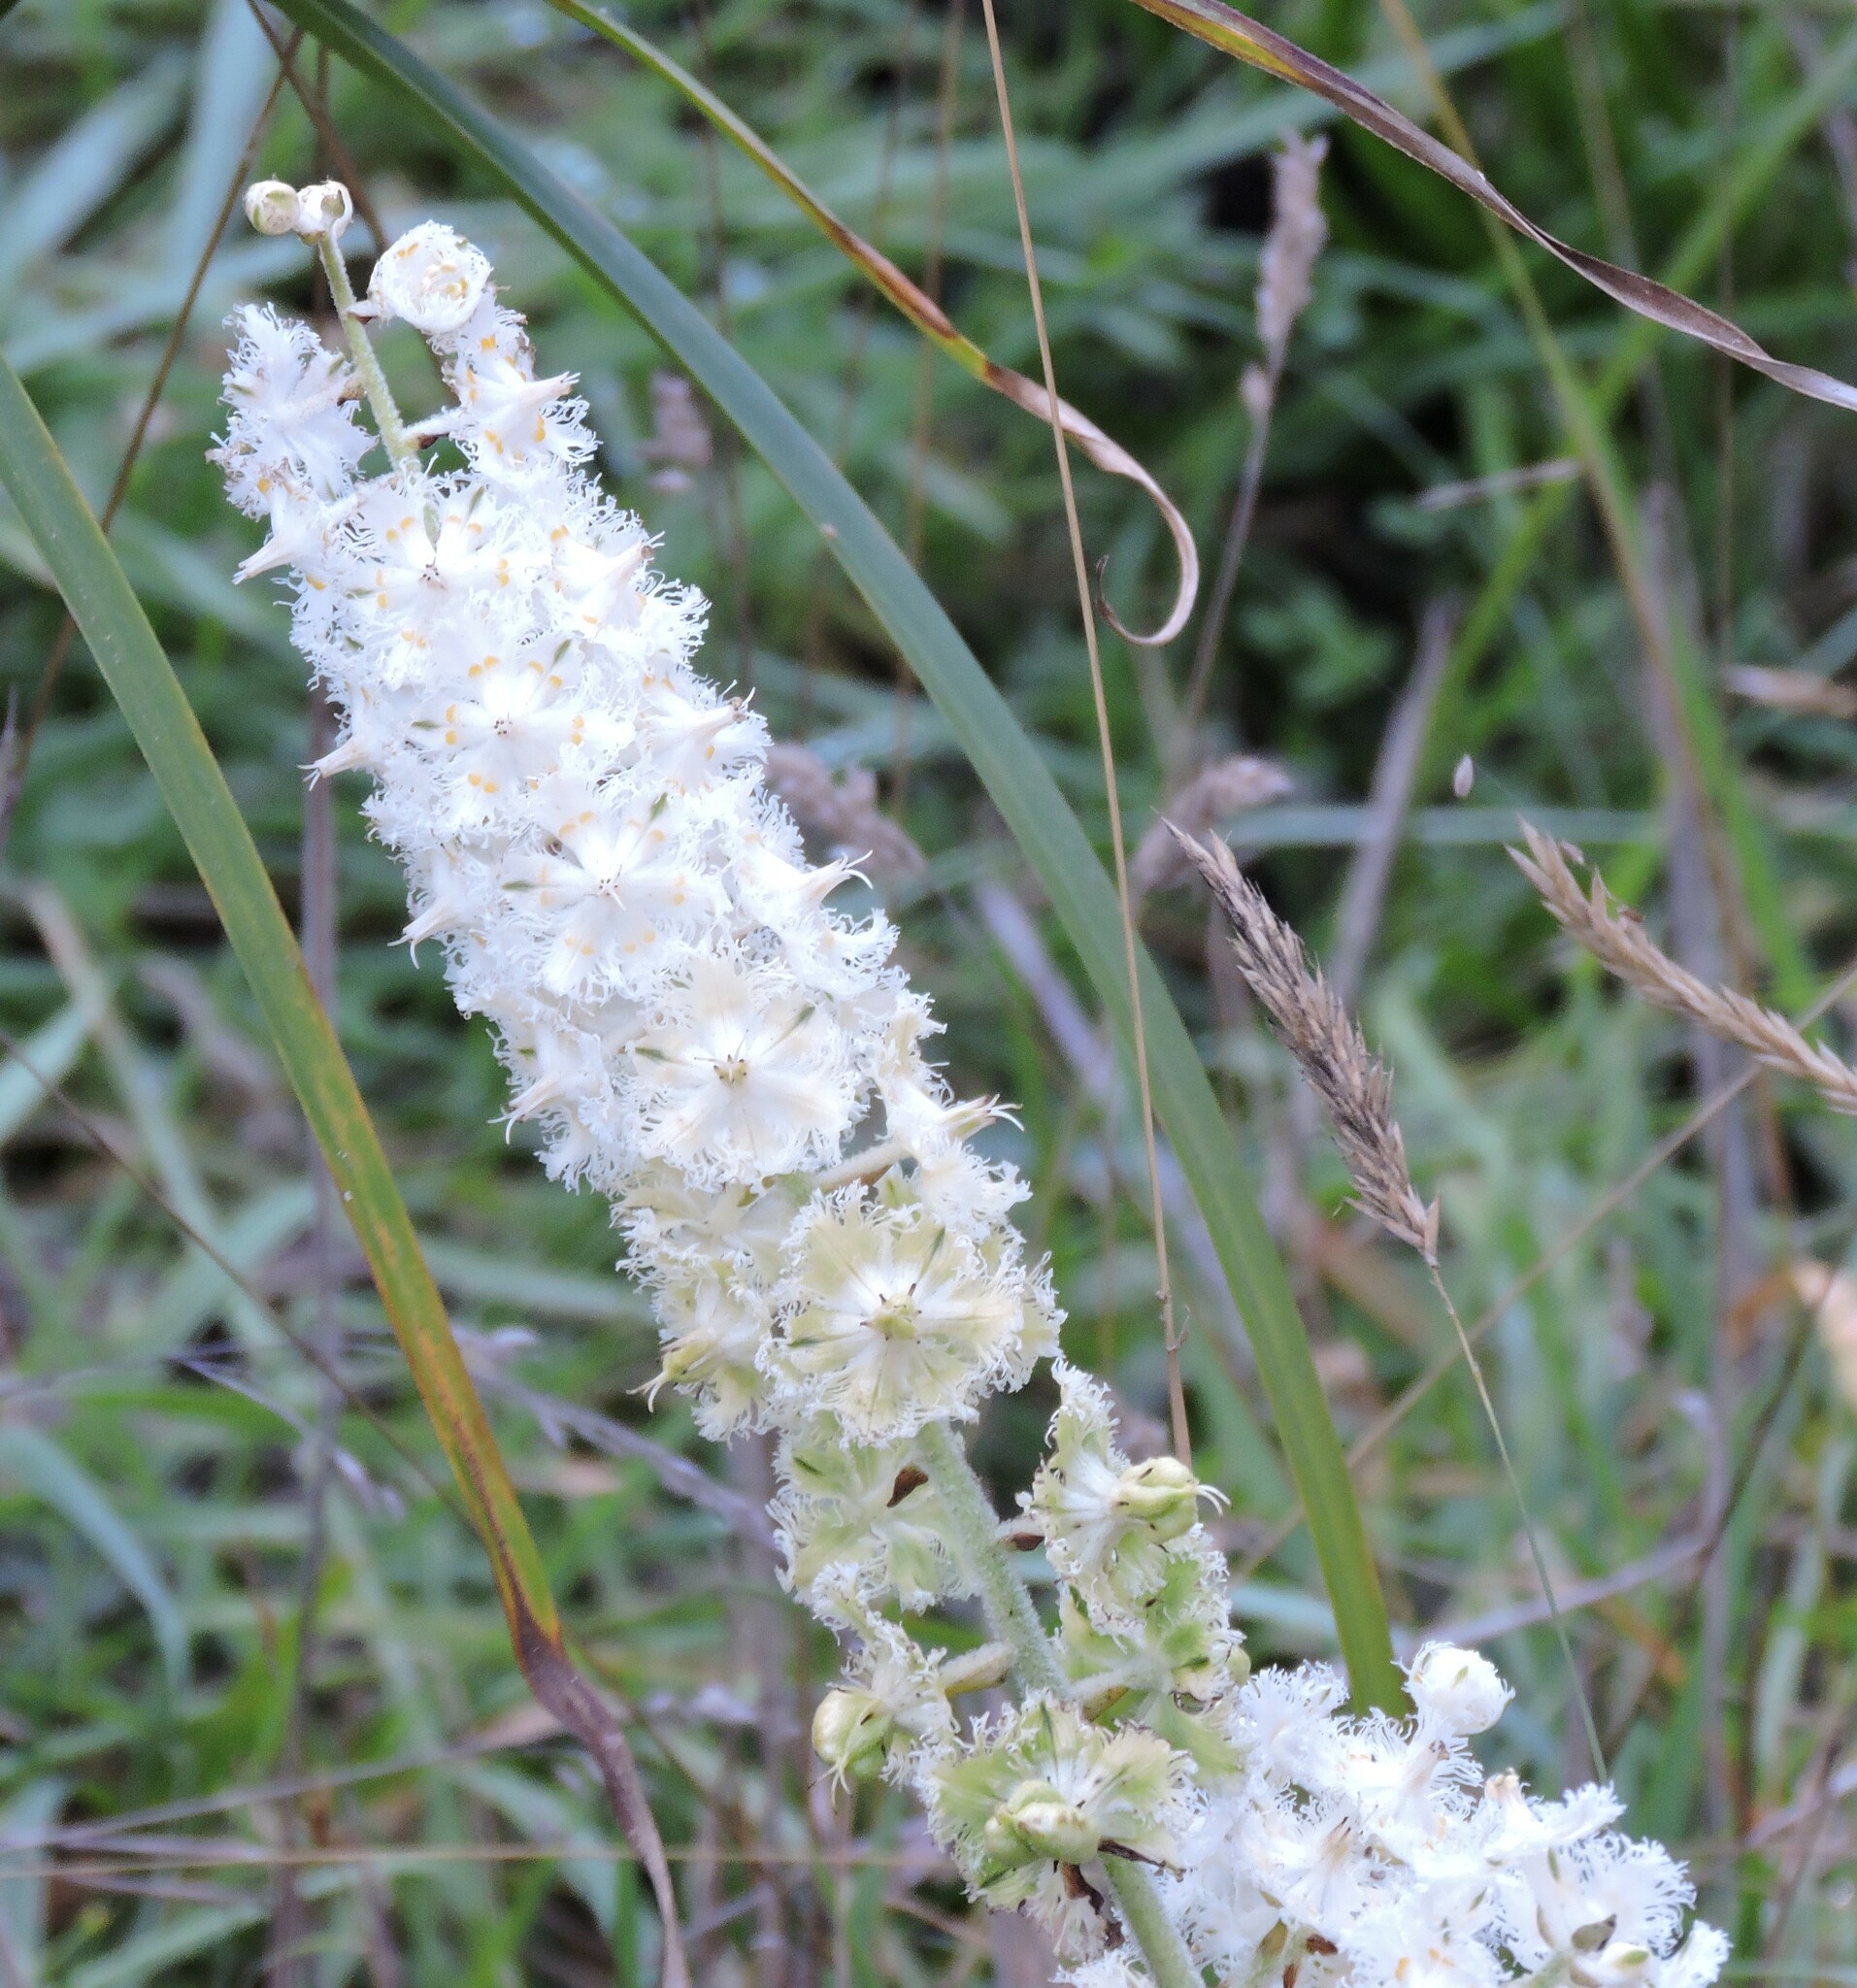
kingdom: Plantae
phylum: Tracheophyta
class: Liliopsida
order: Liliales
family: Melanthiaceae
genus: Veratrum
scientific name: Veratrum fimbriatum
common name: Fringe false hellobore
